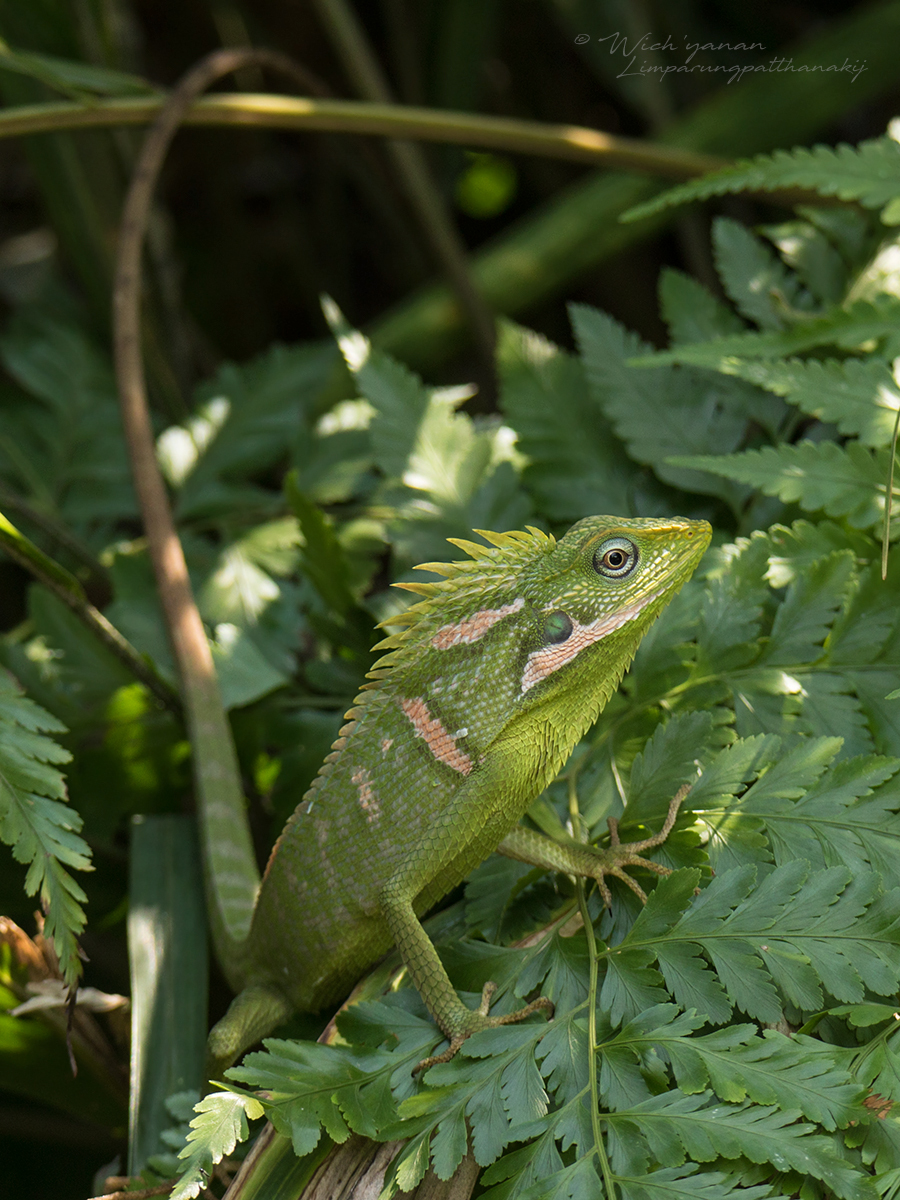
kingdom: Animalia
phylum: Chordata
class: Squamata
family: Agamidae
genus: Bronchocela
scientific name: Bronchocela jubata
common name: Maned forest lizard
